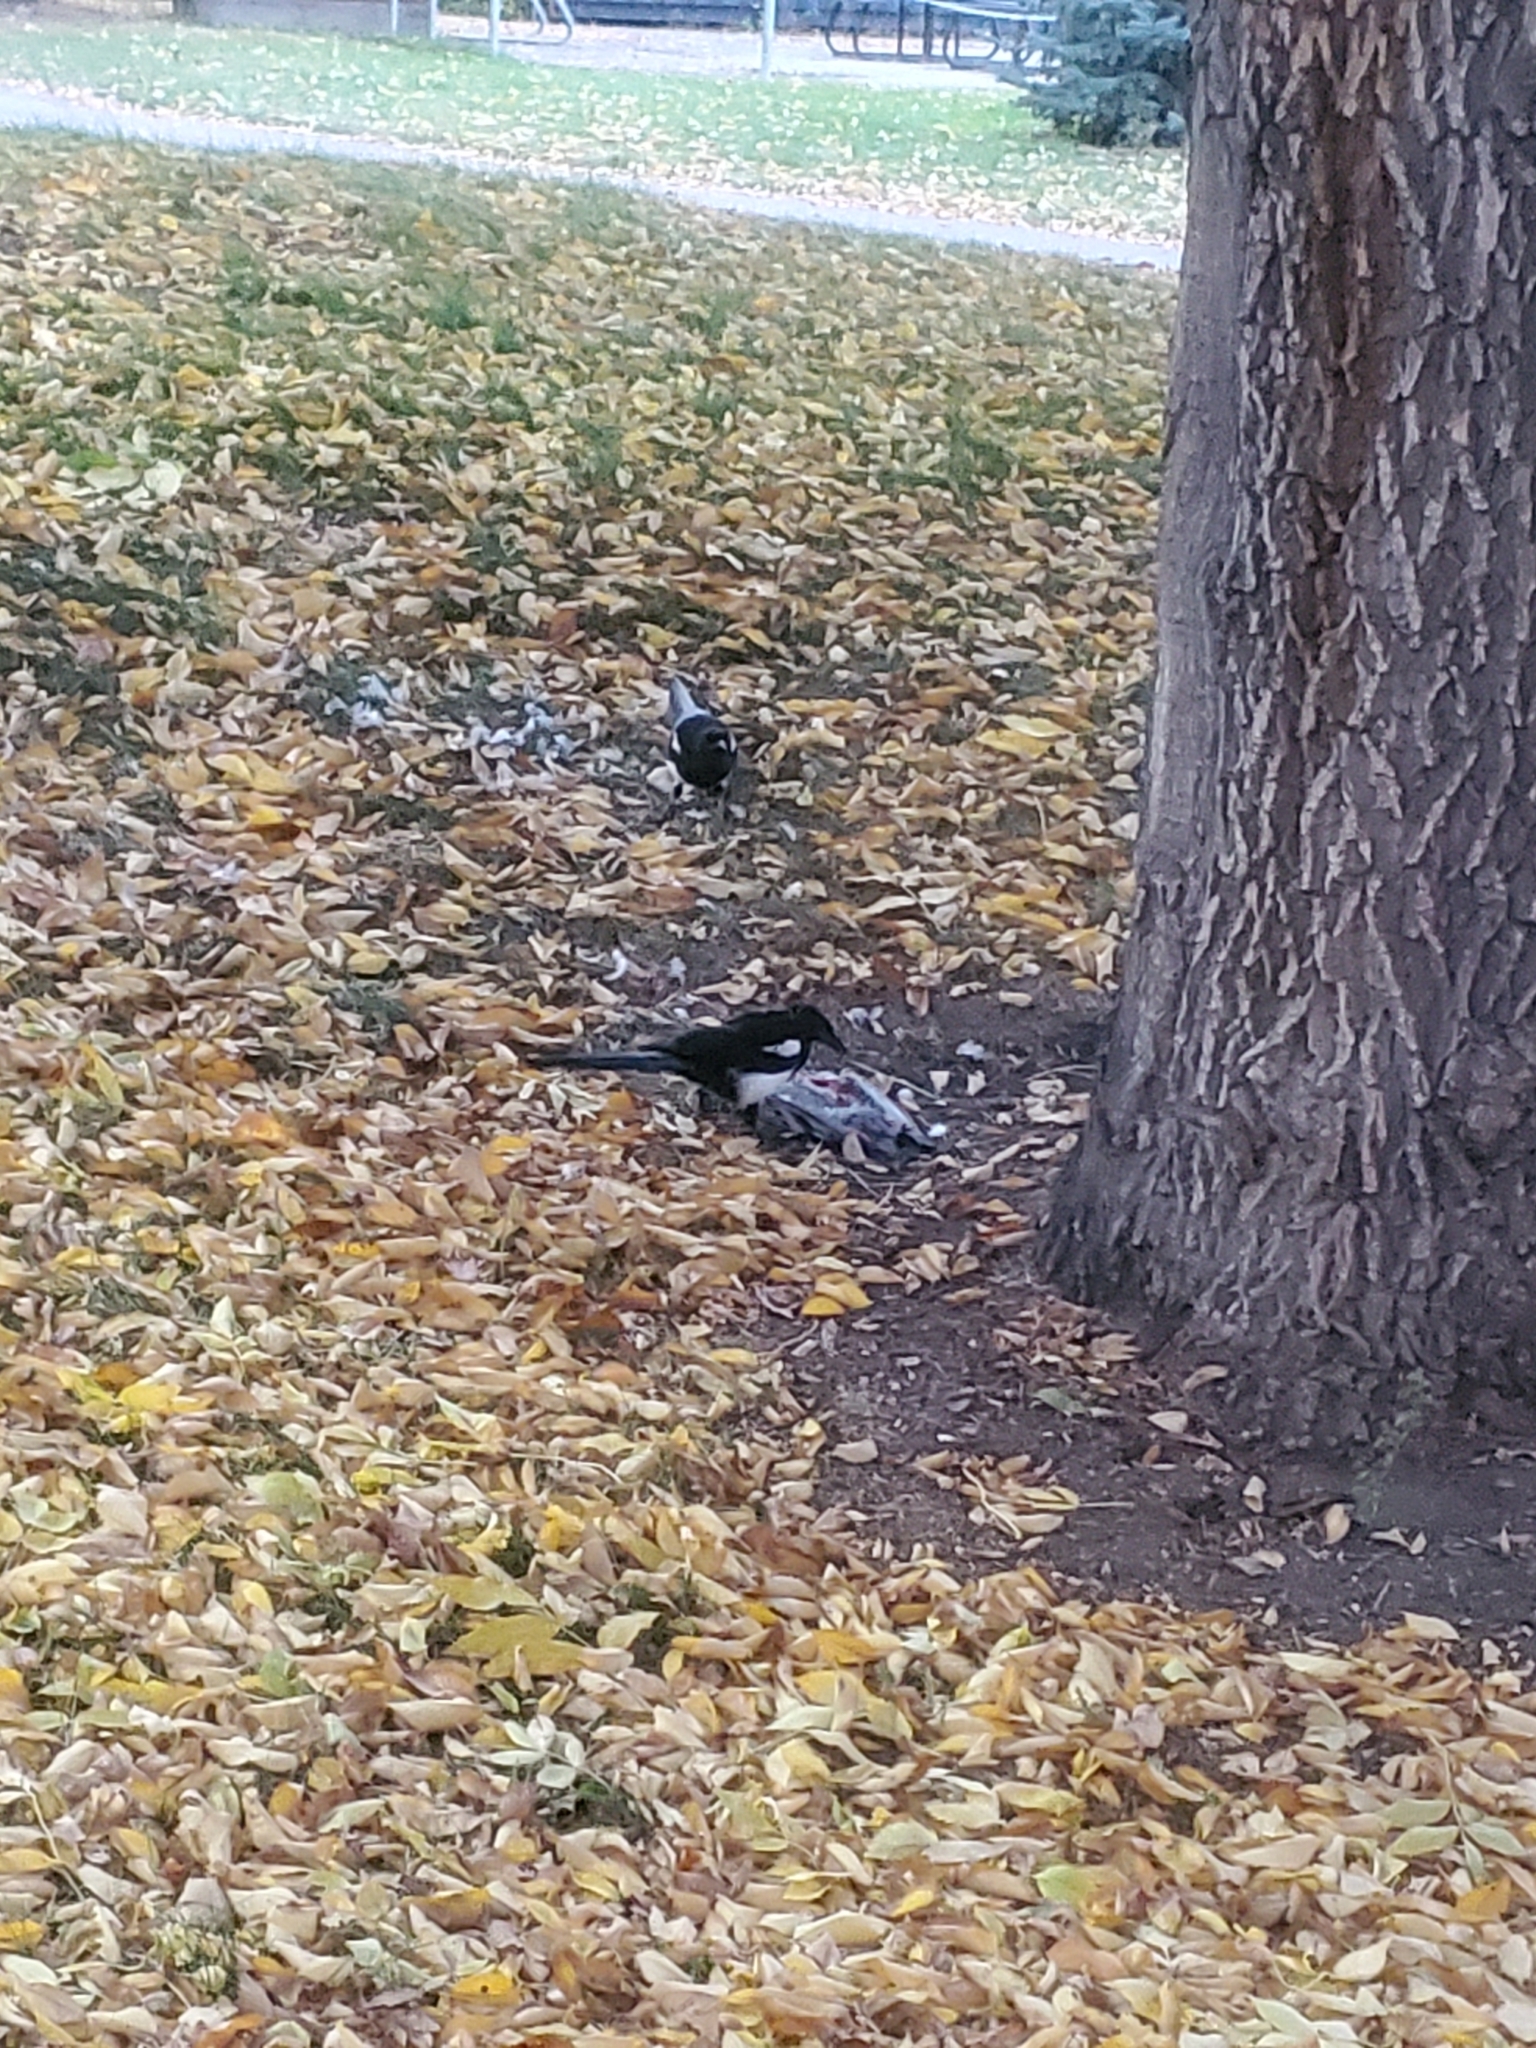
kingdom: Animalia
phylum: Chordata
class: Aves
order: Passeriformes
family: Corvidae
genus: Pica
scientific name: Pica hudsonia
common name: Black-billed magpie
